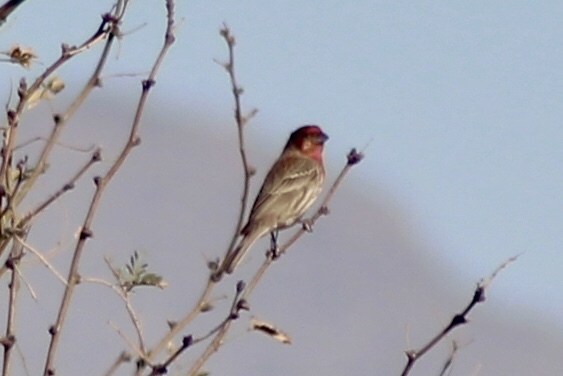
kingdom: Animalia
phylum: Chordata
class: Aves
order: Passeriformes
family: Fringillidae
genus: Haemorhous
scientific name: Haemorhous mexicanus
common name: House finch
